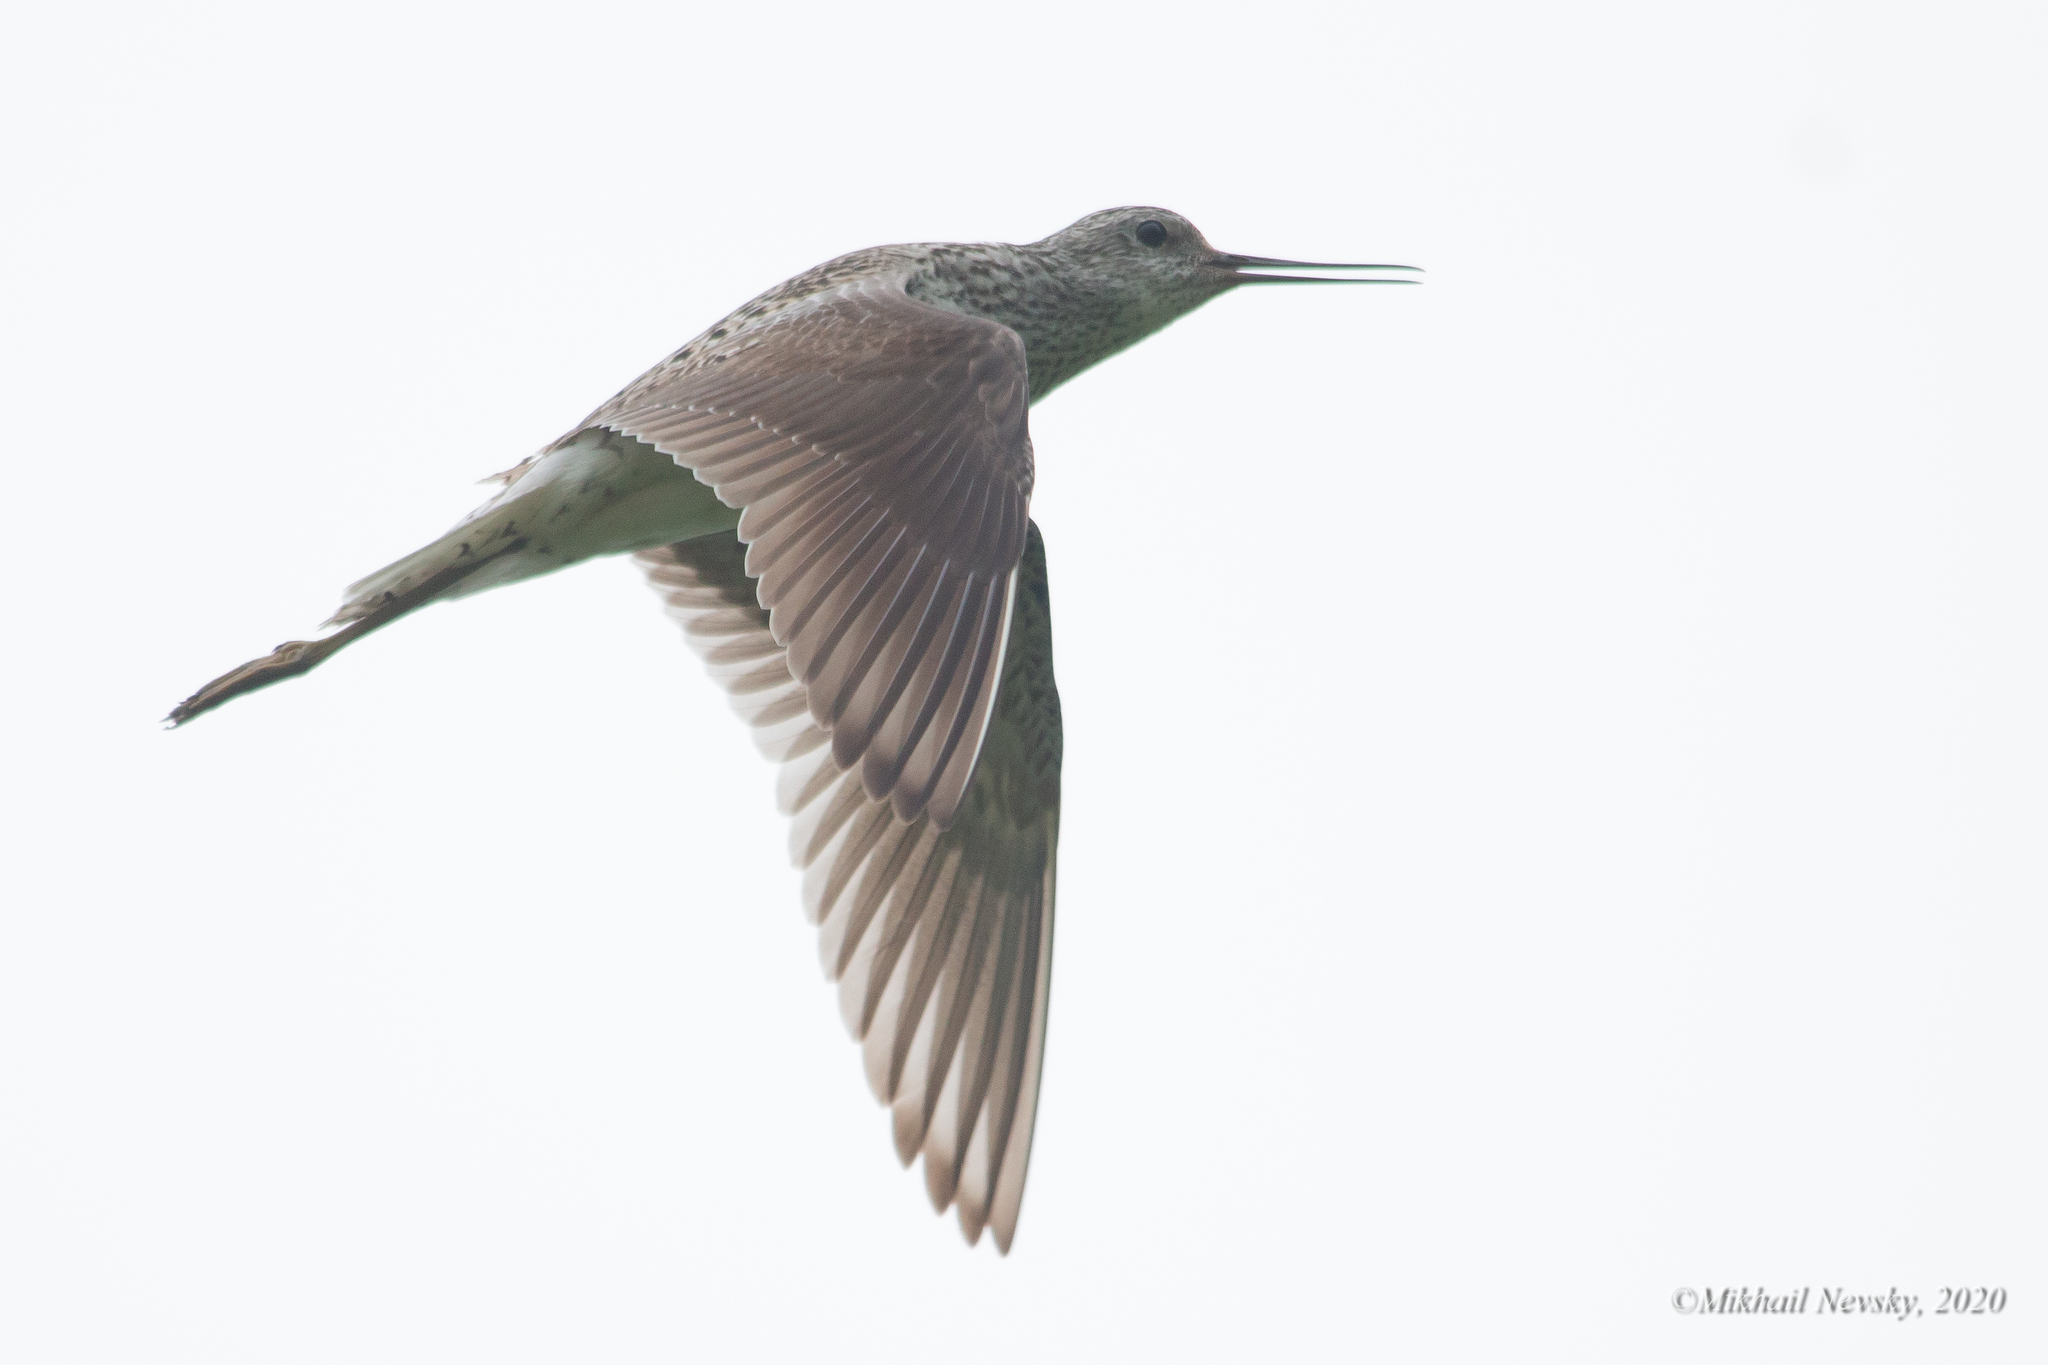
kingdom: Animalia
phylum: Chordata
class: Aves
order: Charadriiformes
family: Scolopacidae
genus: Tringa
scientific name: Tringa stagnatilis
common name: Marsh sandpiper
